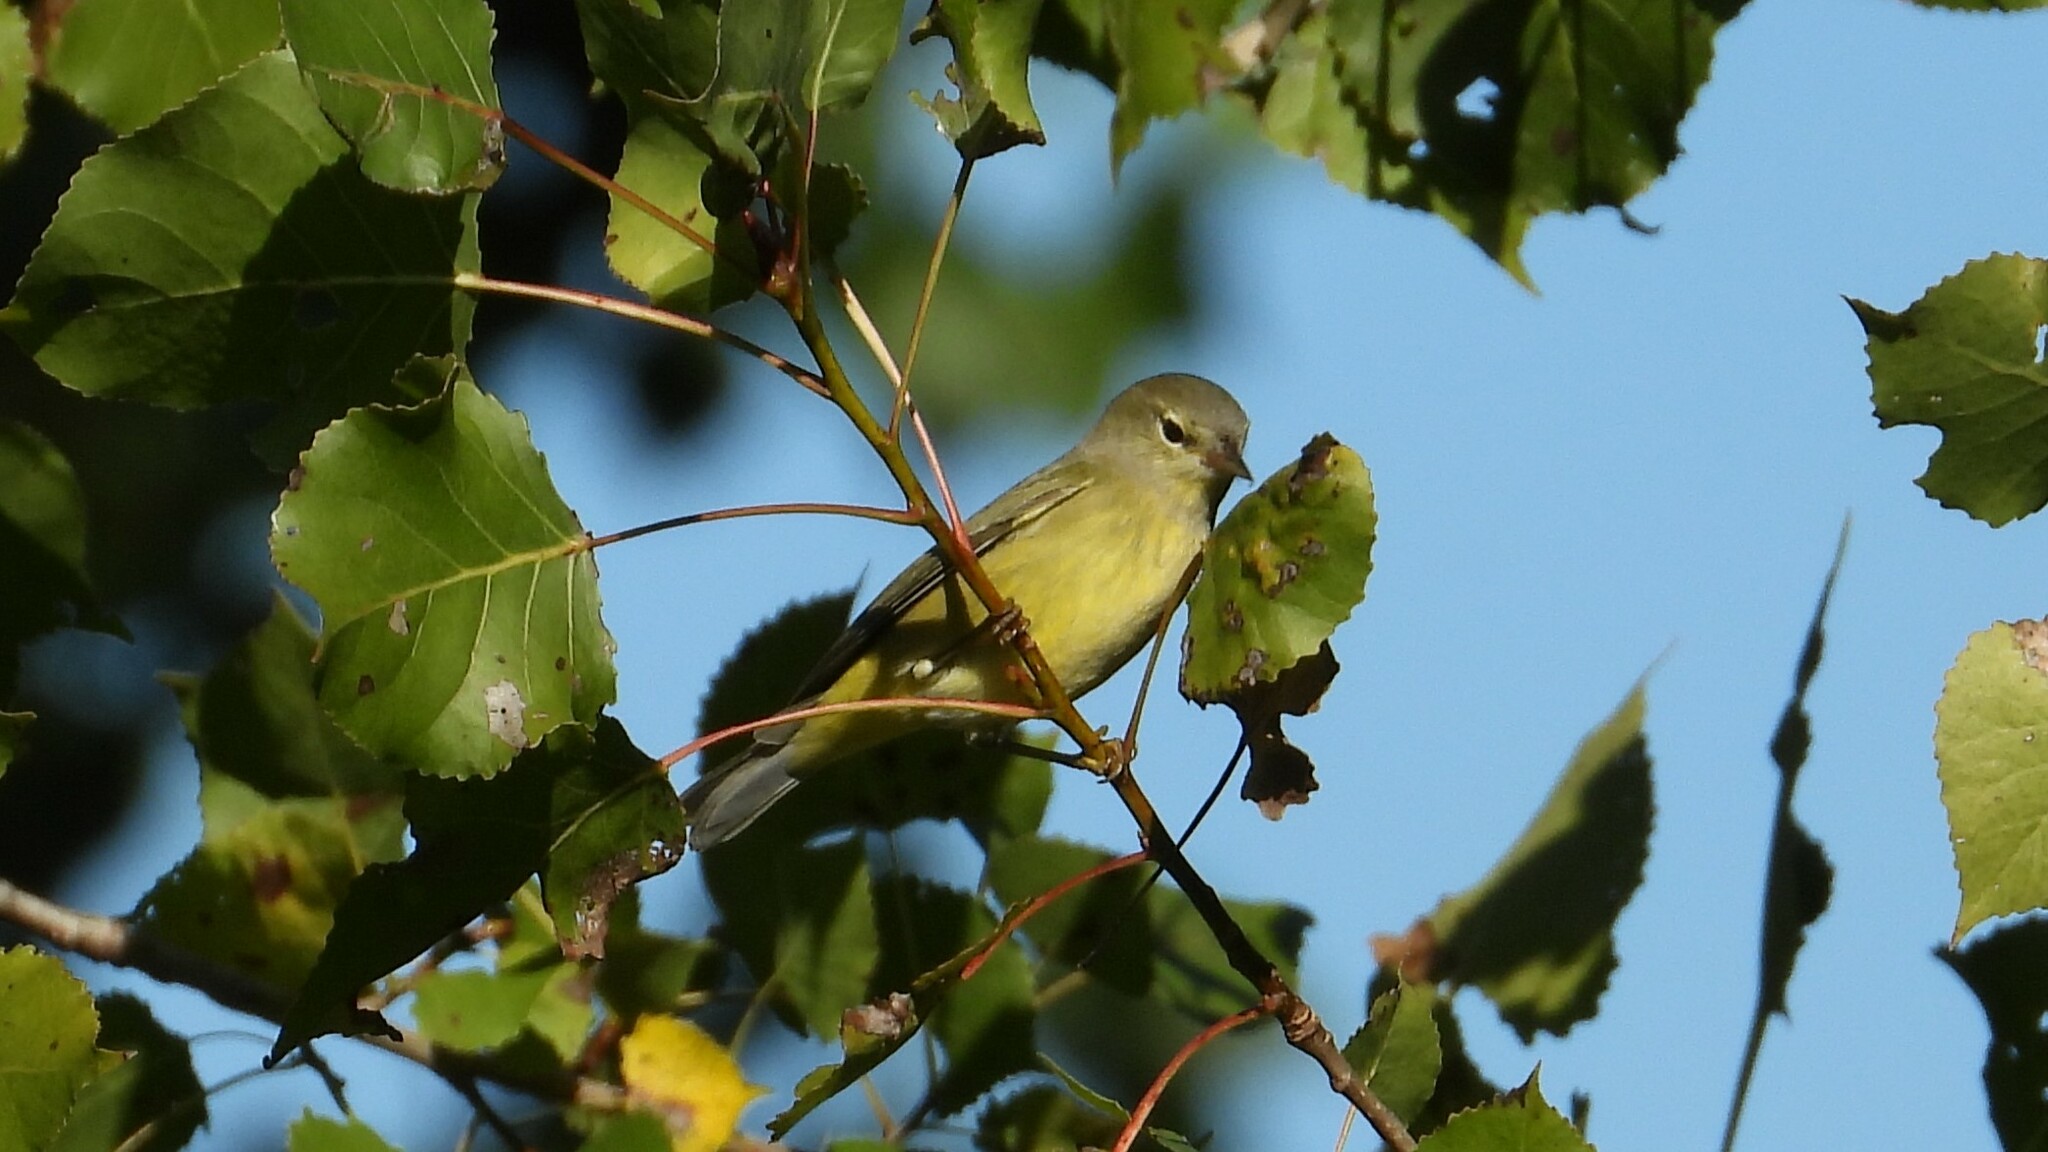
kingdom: Animalia
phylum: Chordata
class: Aves
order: Passeriformes
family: Parulidae
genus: Leiothlypis
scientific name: Leiothlypis celata
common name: Orange-crowned warbler
